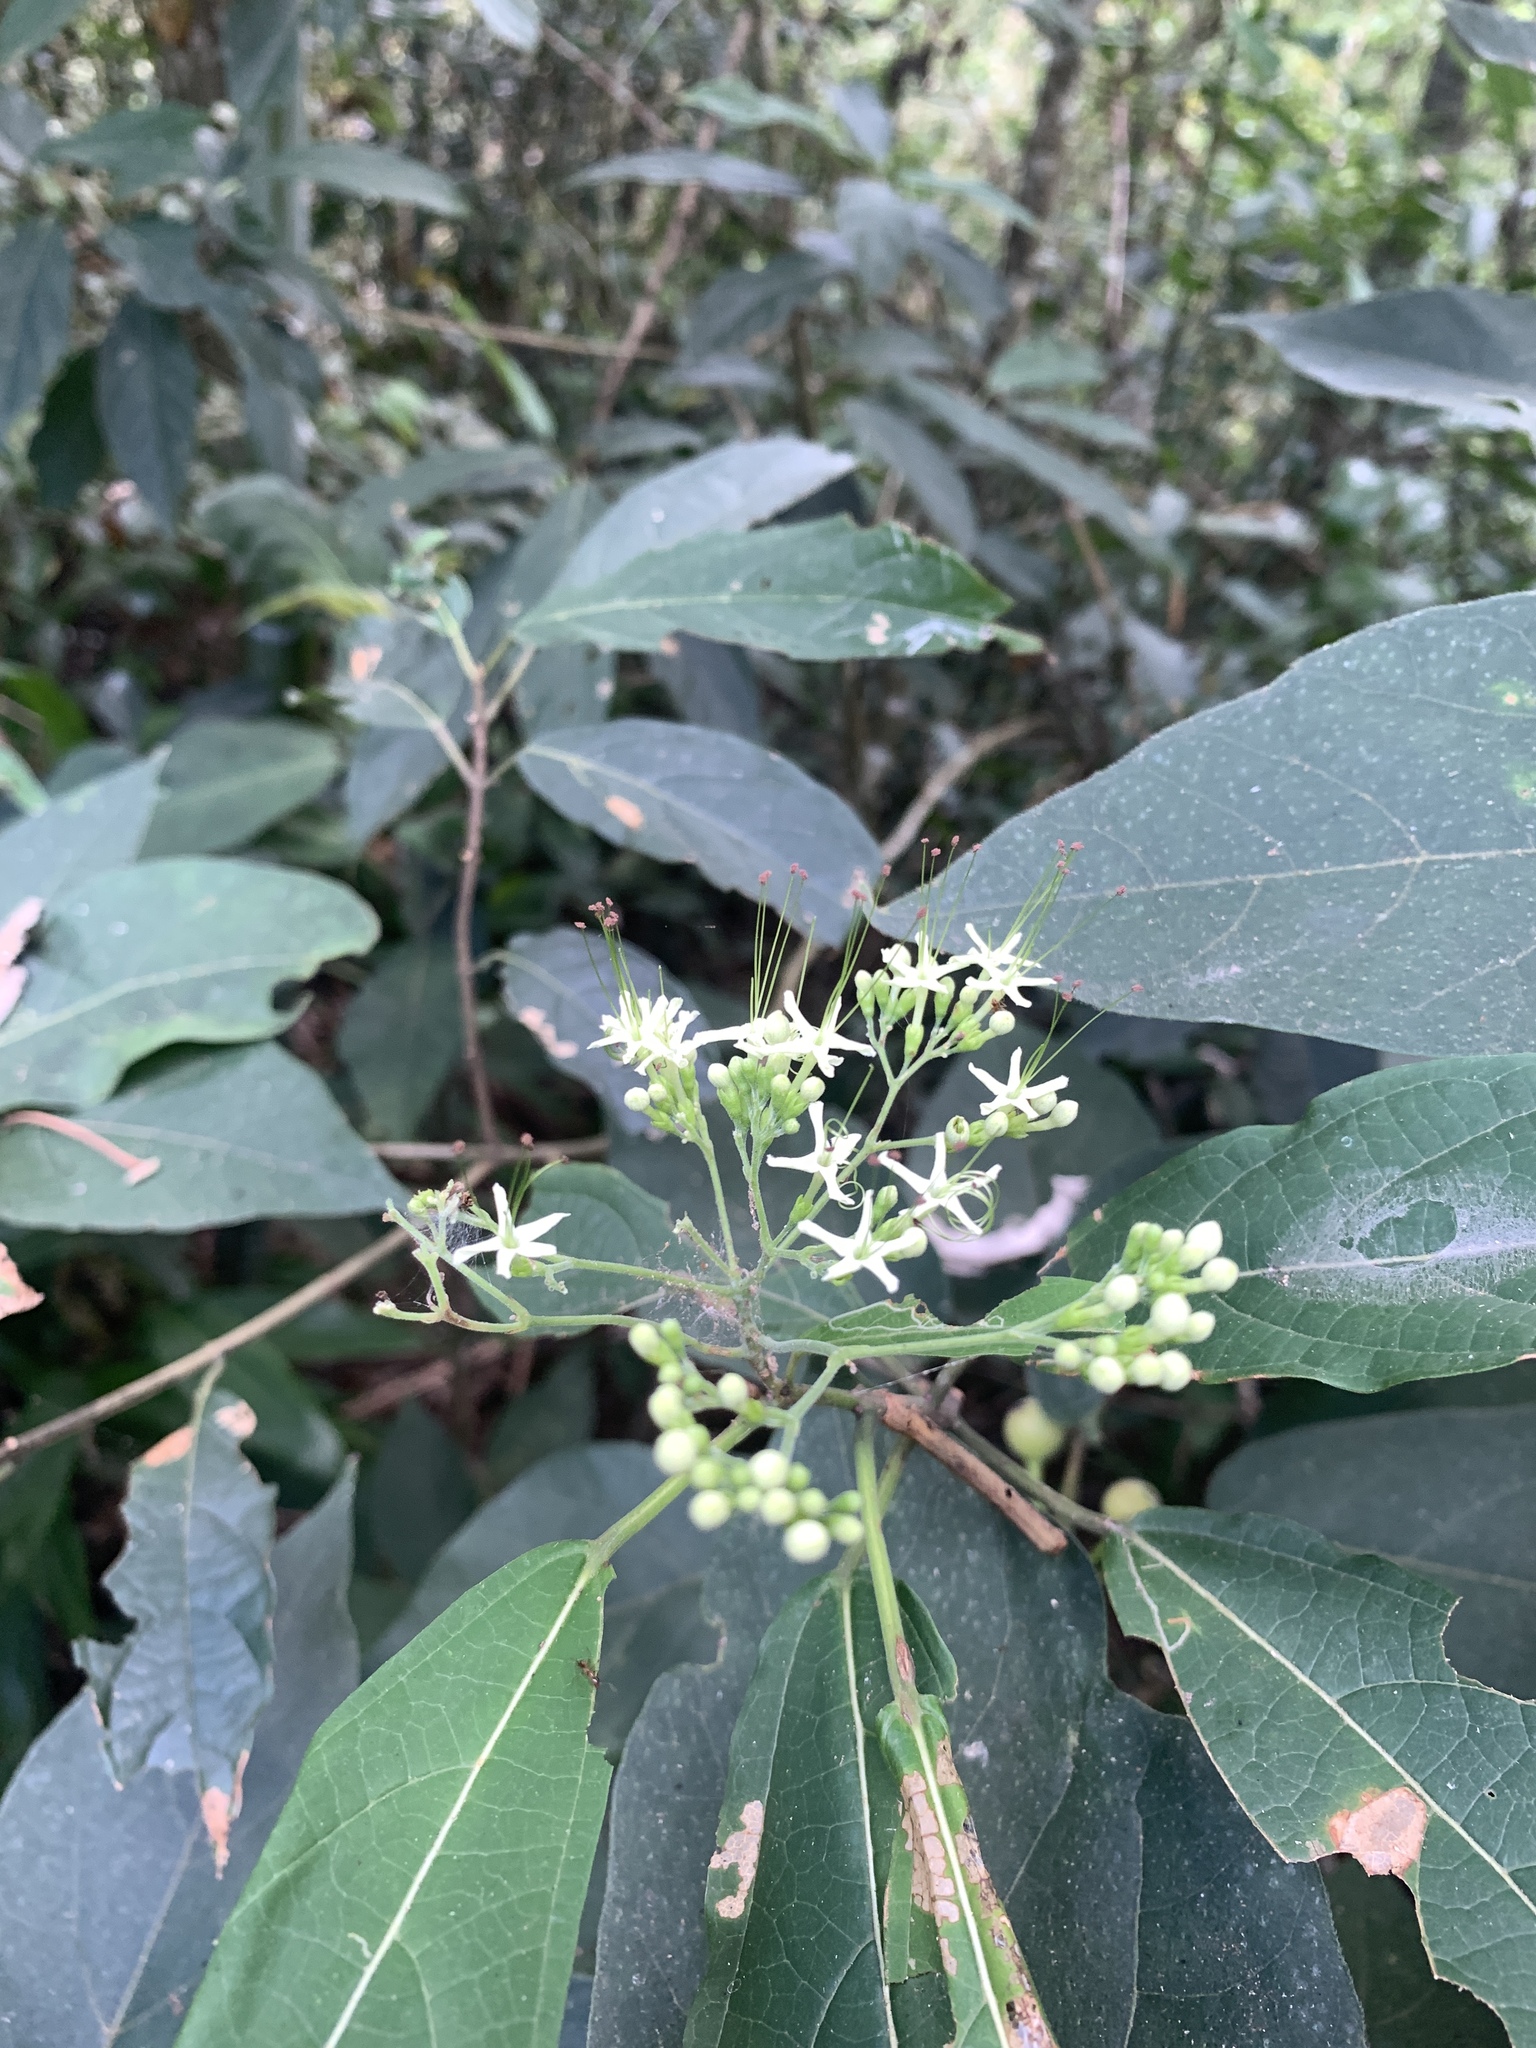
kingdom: Plantae
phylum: Tracheophyta
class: Magnoliopsida
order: Lamiales
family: Lamiaceae
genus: Clerodendrum
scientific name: Clerodendrum cyrtophyllum
